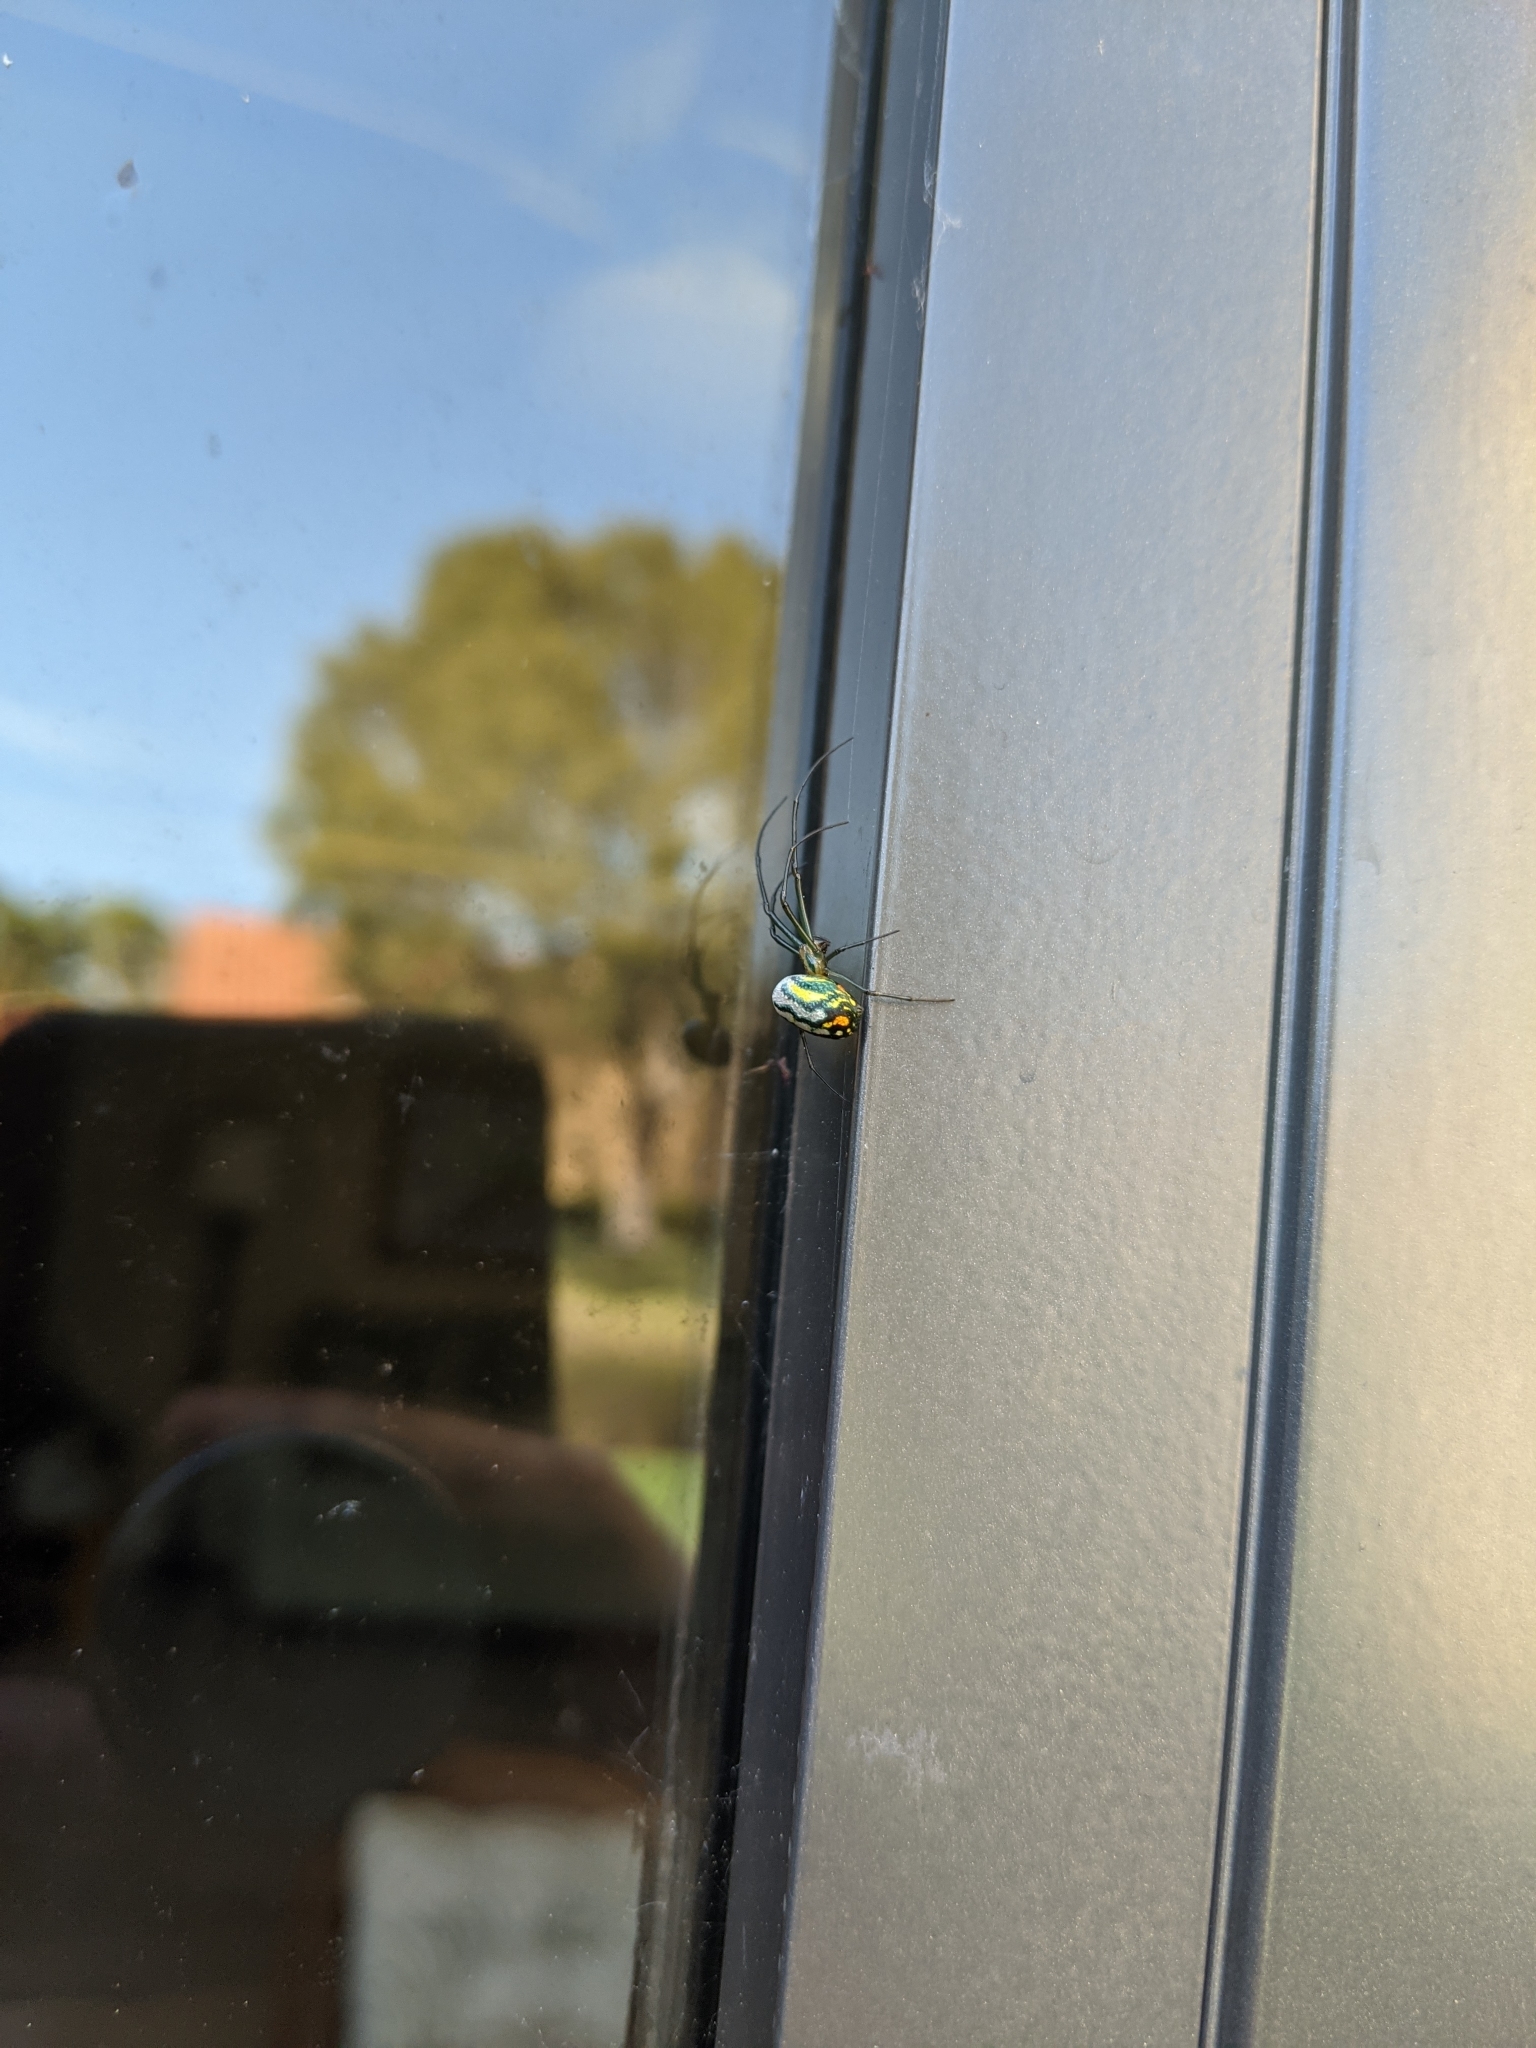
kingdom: Animalia
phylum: Arthropoda
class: Arachnida
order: Araneae
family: Tetragnathidae
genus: Leucauge
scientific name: Leucauge argyrobapta
